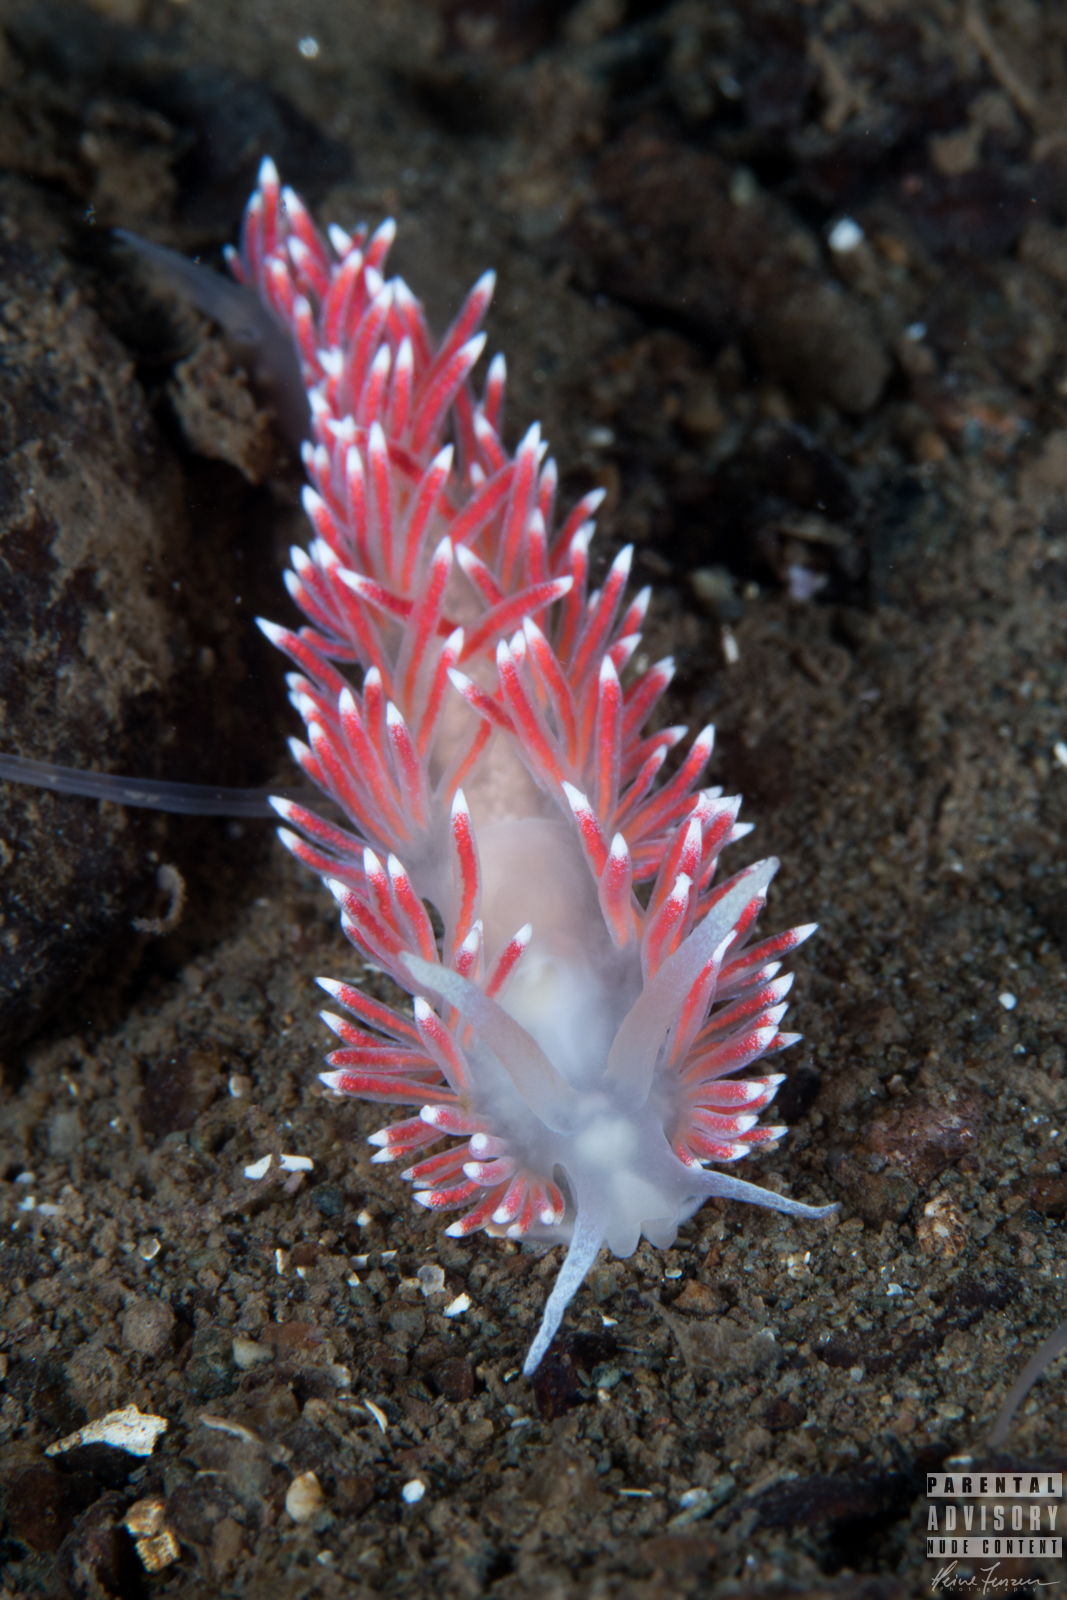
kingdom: Animalia
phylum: Mollusca
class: Gastropoda
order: Nudibranchia
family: Flabellinidae
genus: Carronella
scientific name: Carronella pellucida
